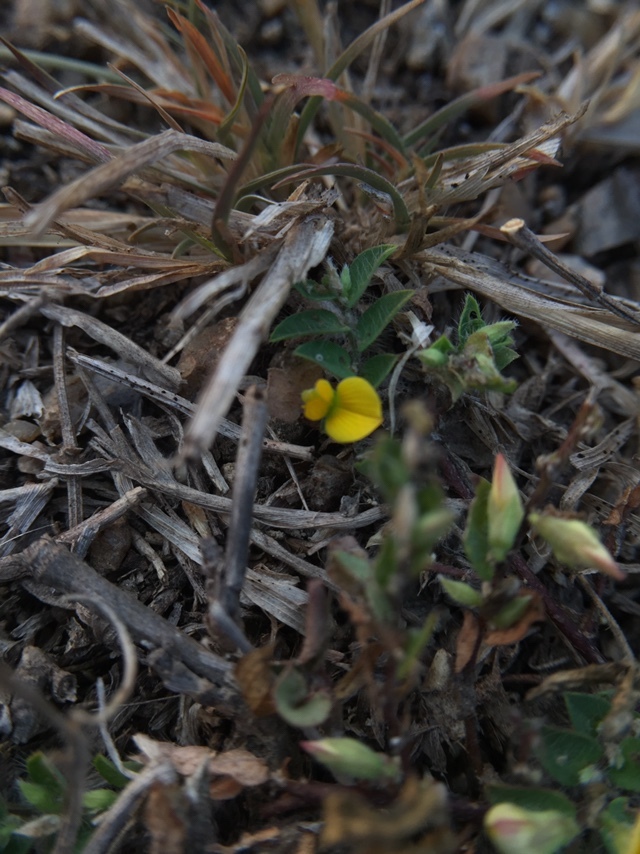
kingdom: Plantae
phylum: Tracheophyta
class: Magnoliopsida
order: Fabales
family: Fabaceae
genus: Crotalaria
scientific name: Crotalaria hebecarpa
